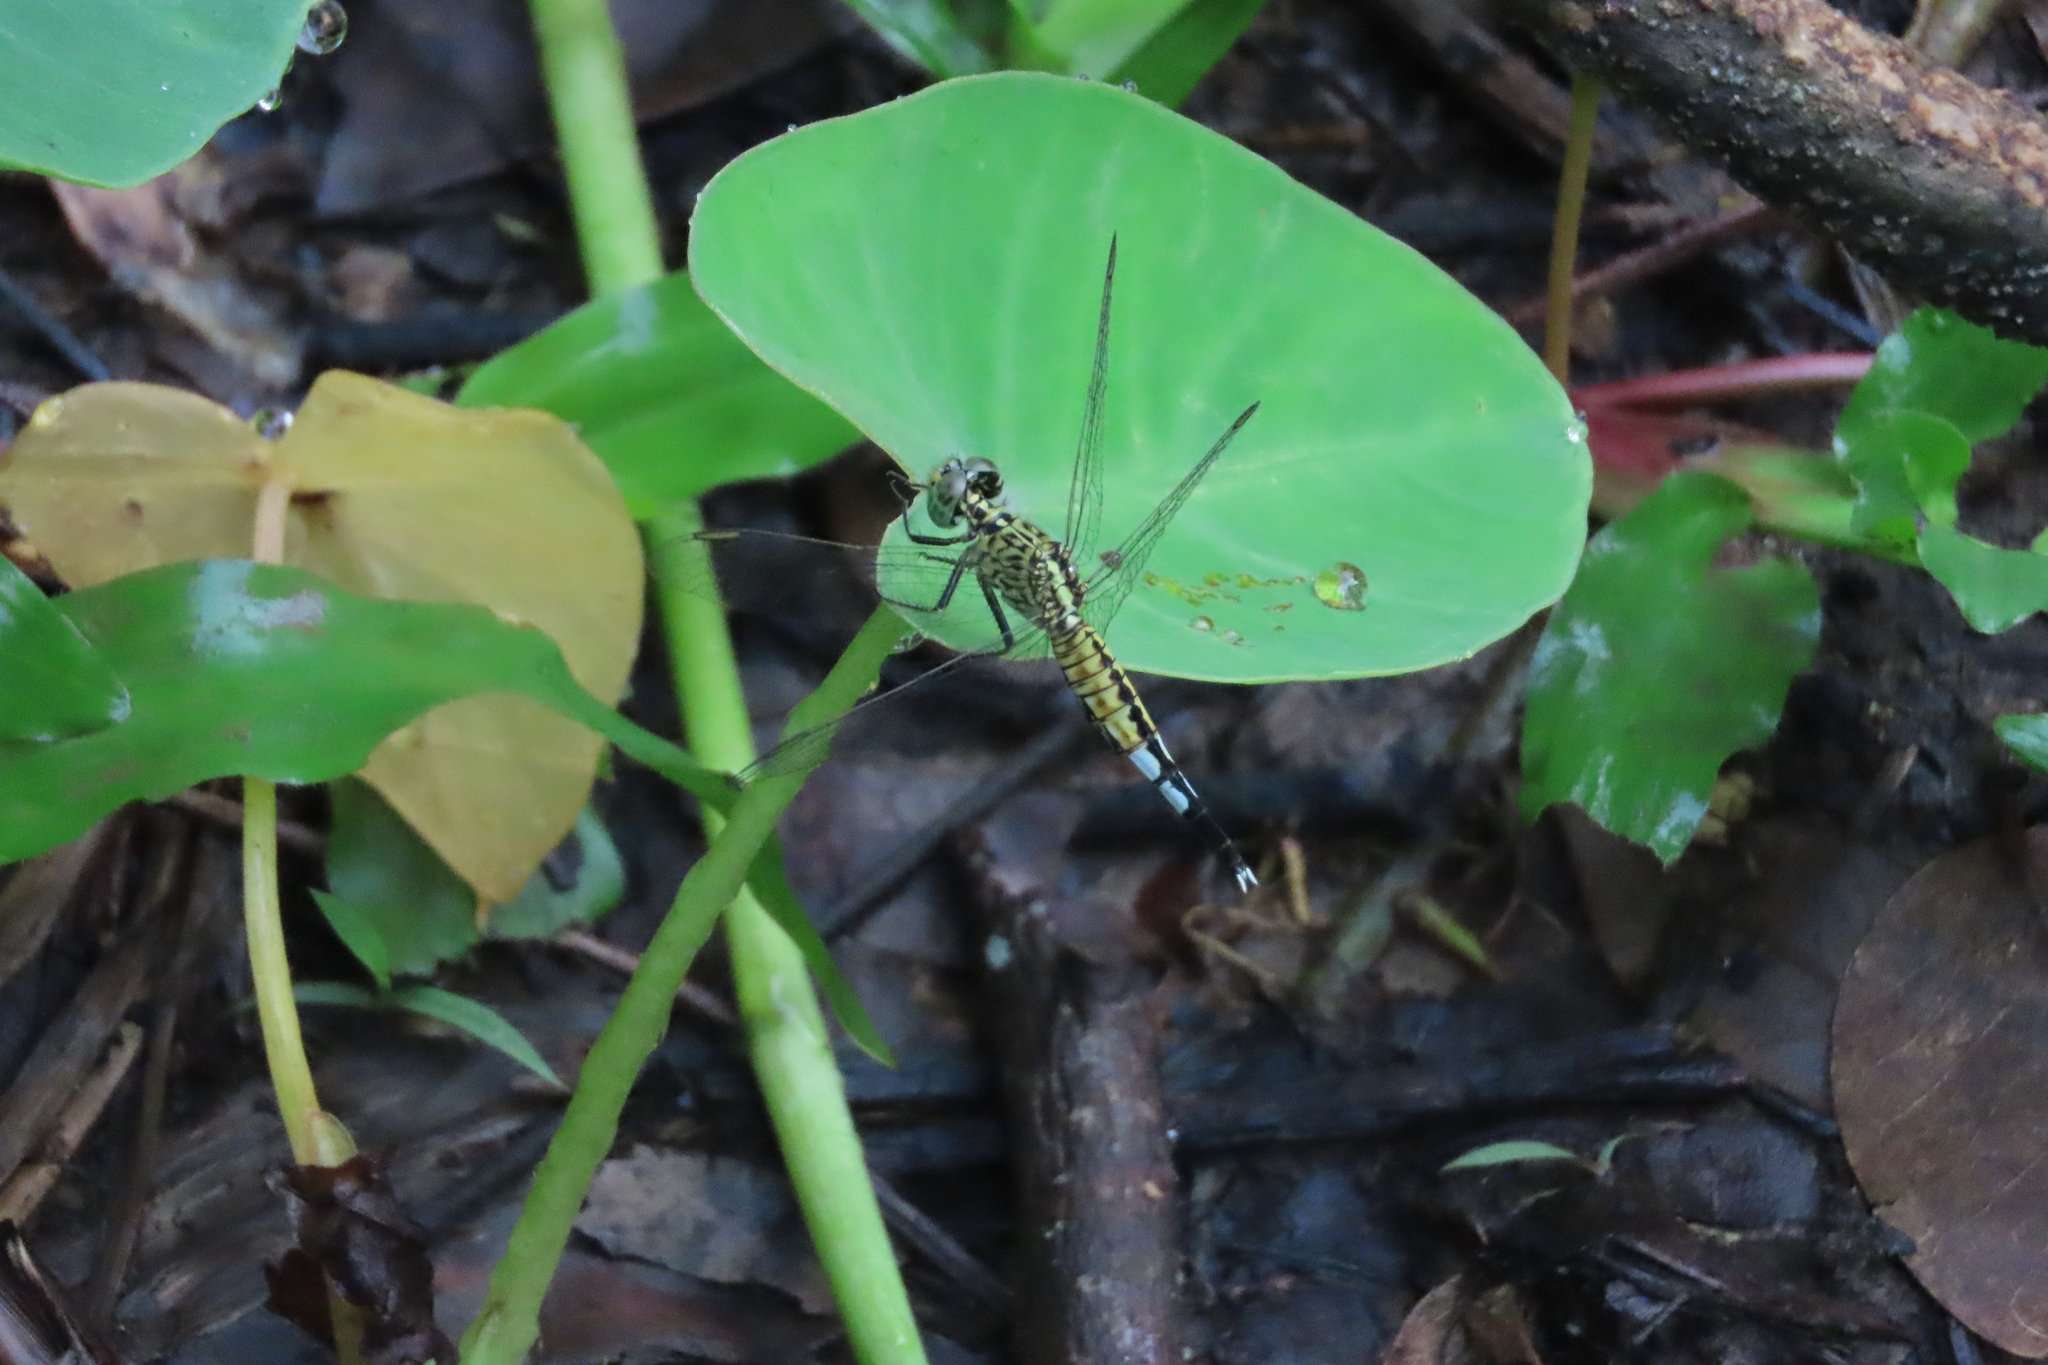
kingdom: Animalia
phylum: Arthropoda
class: Insecta
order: Odonata
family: Libellulidae
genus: Acisoma
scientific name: Acisoma panorpoides
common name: Asian pintail
